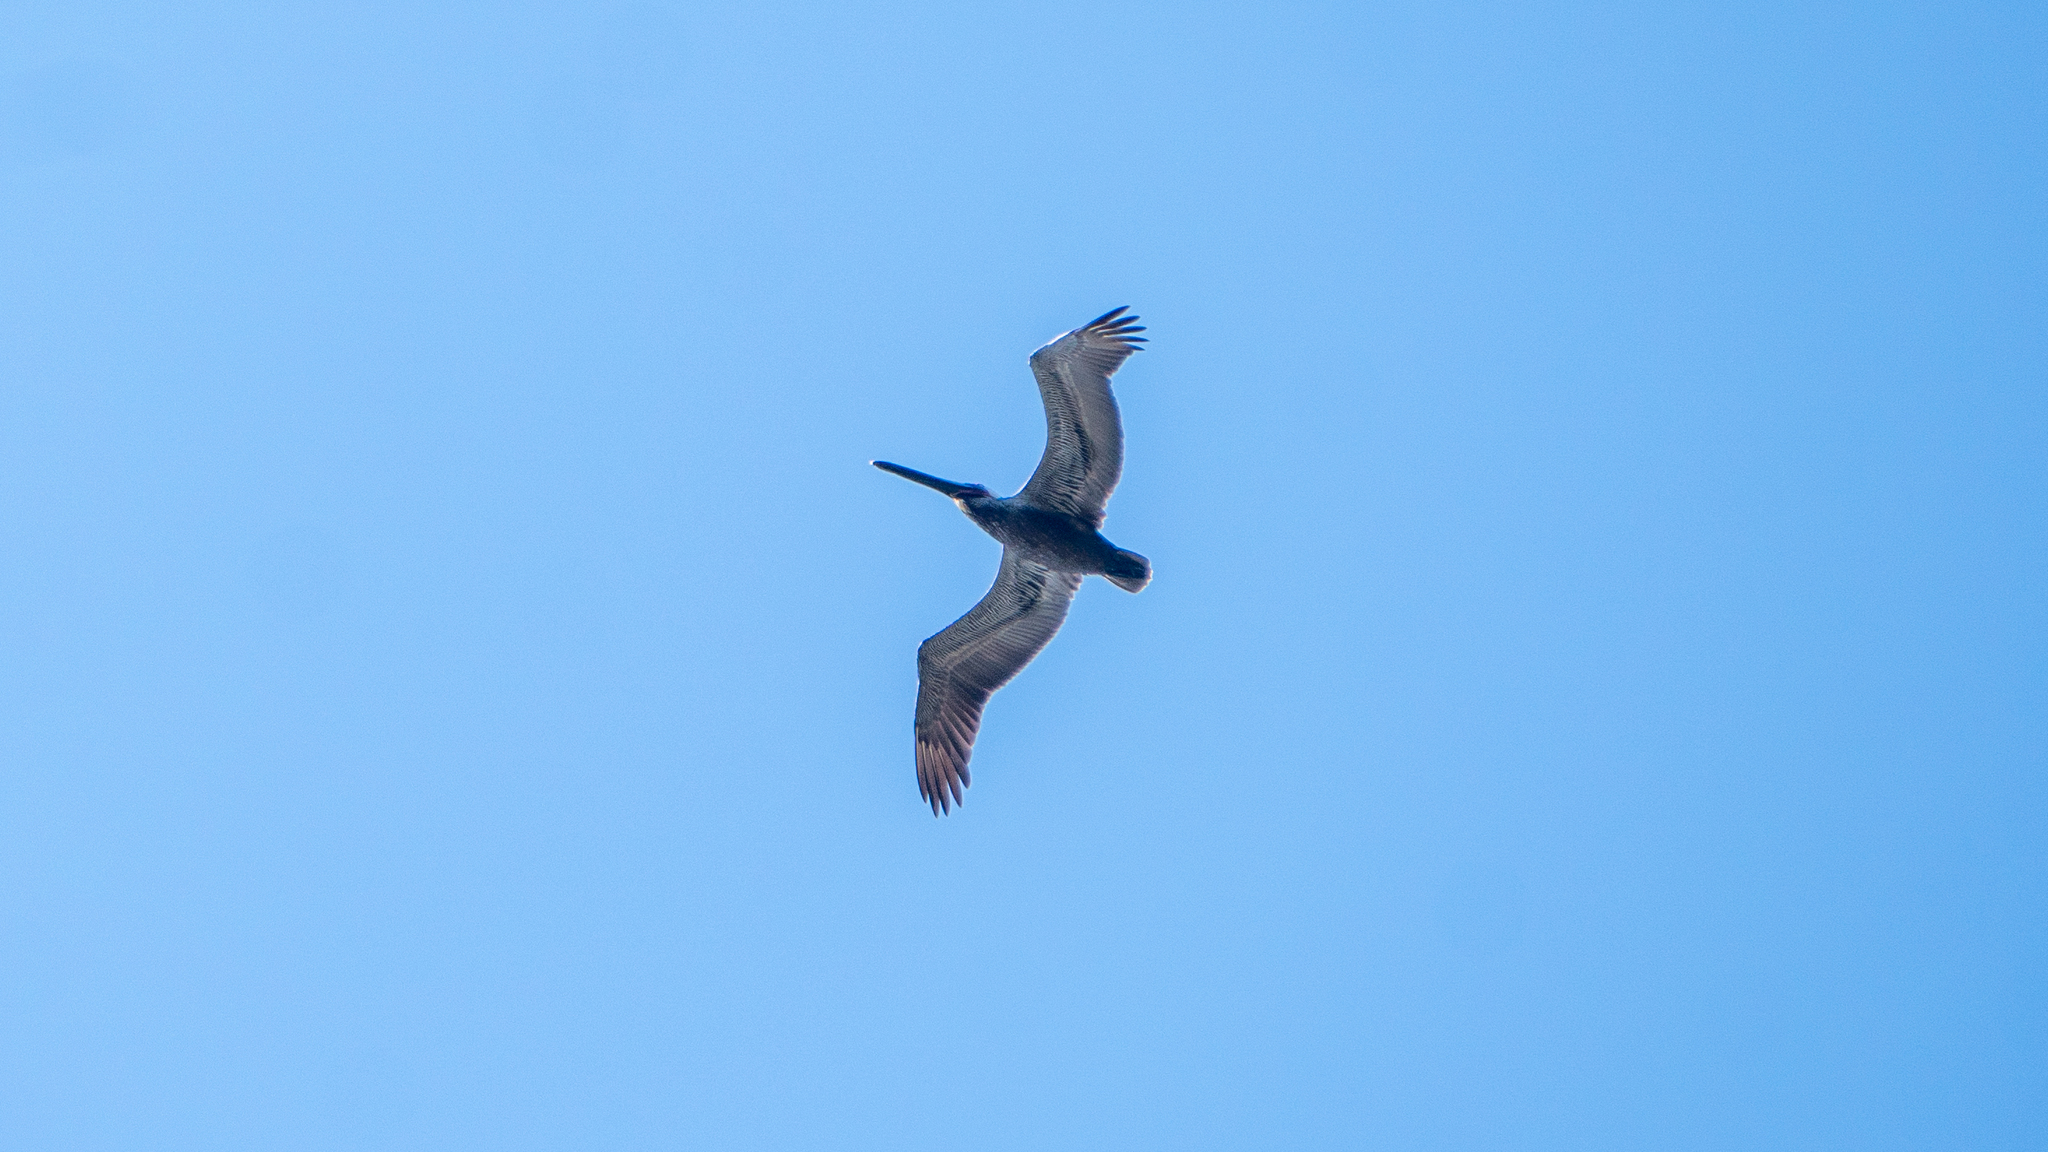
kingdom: Animalia
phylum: Chordata
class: Aves
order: Pelecaniformes
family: Pelecanidae
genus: Pelecanus
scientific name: Pelecanus occidentalis
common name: Brown pelican
